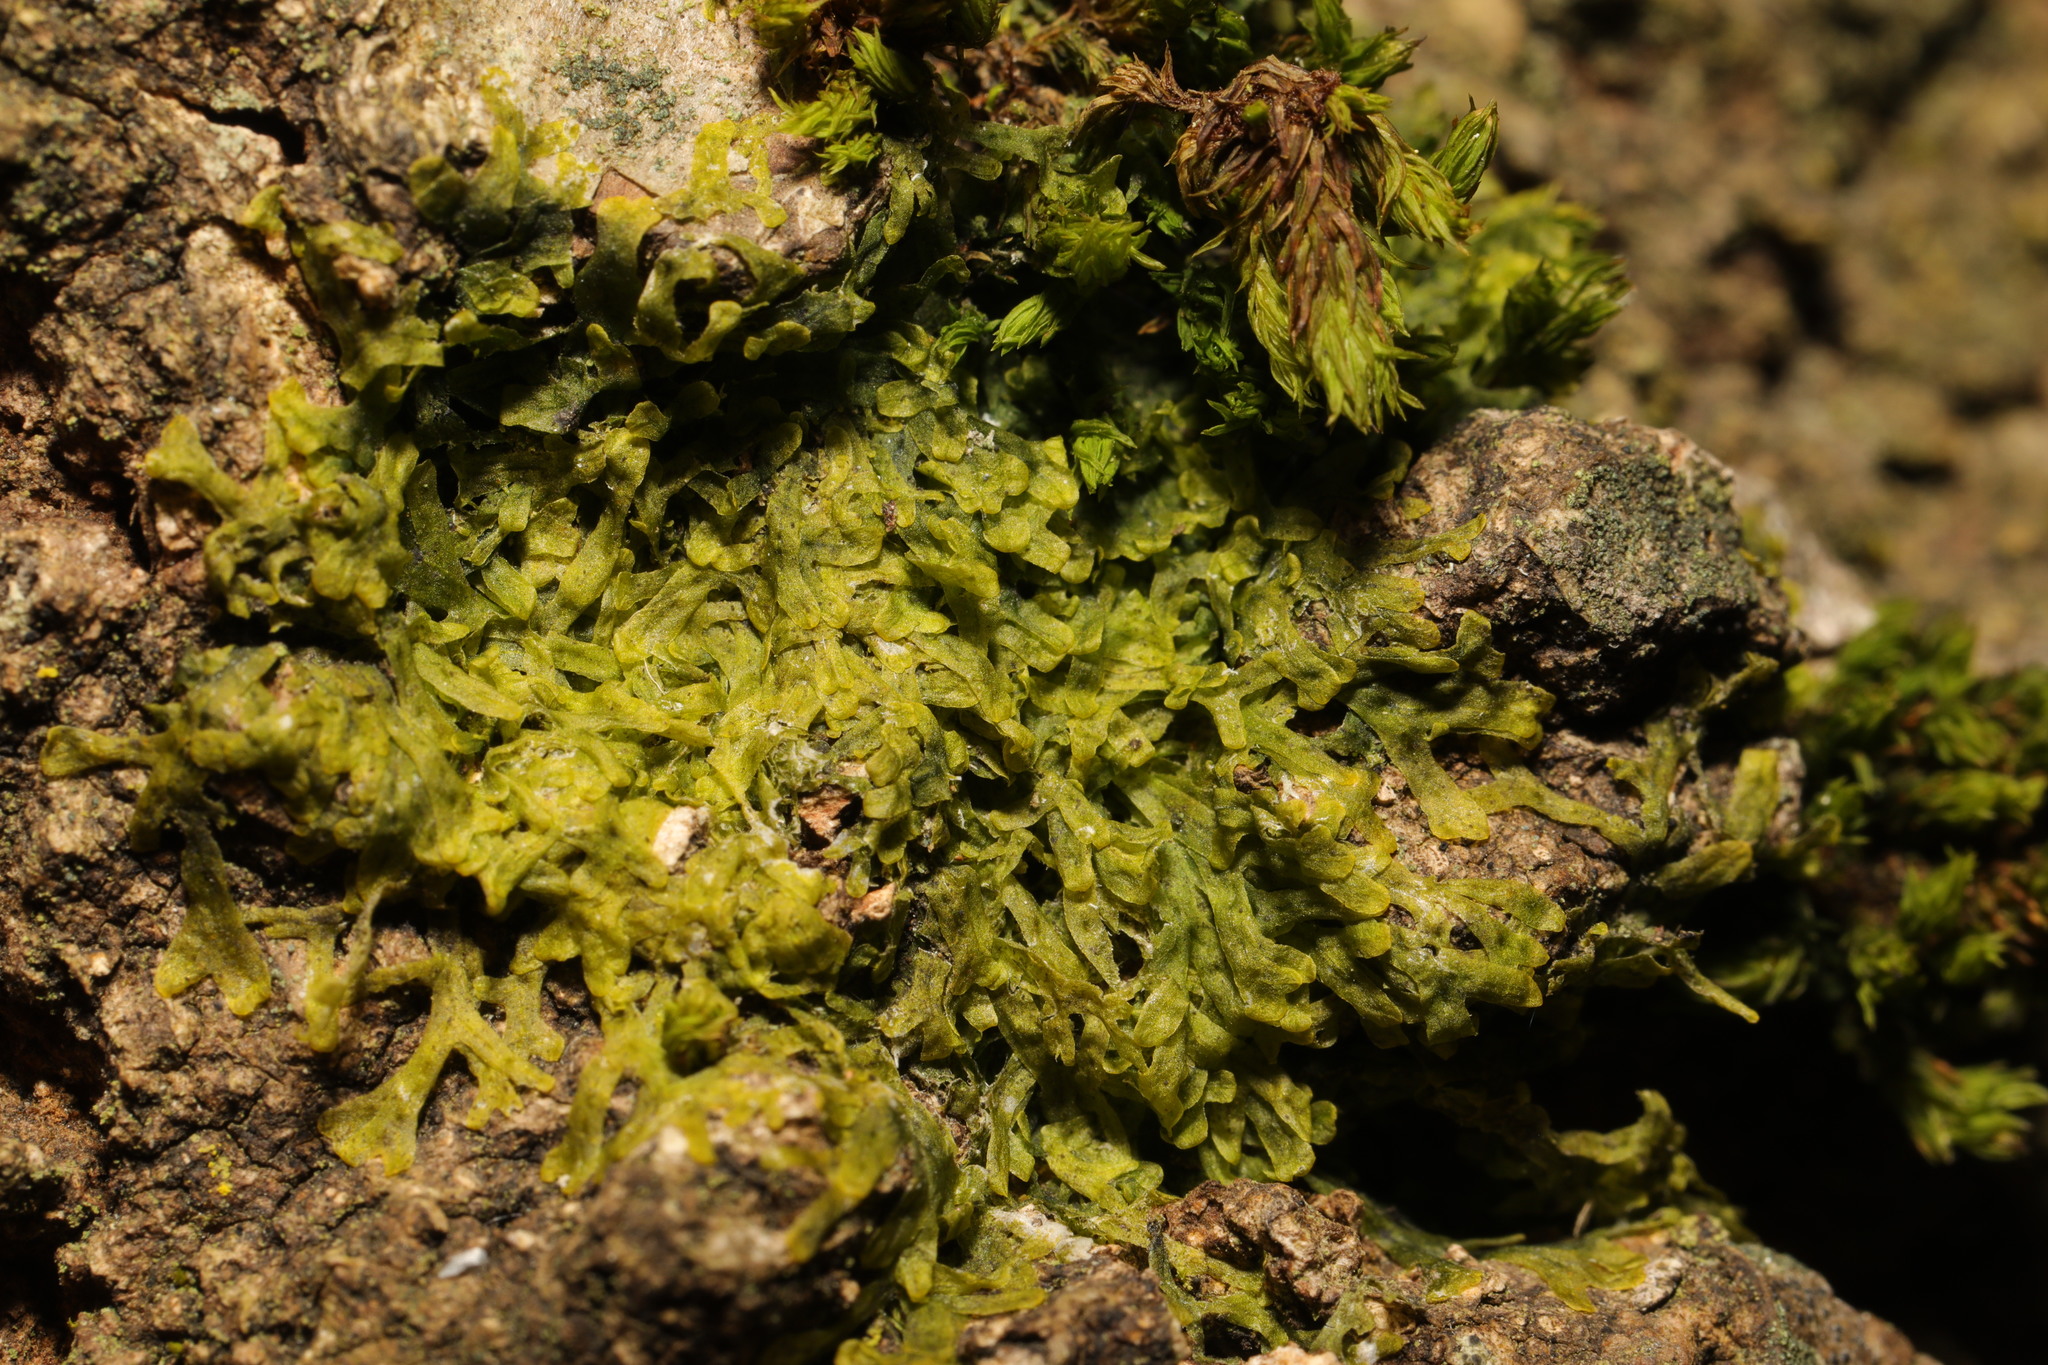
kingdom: Plantae
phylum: Marchantiophyta
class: Jungermanniopsida
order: Metzgeriales
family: Metzgeriaceae
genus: Metzgeria
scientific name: Metzgeria furcata
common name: Forked veilwort
